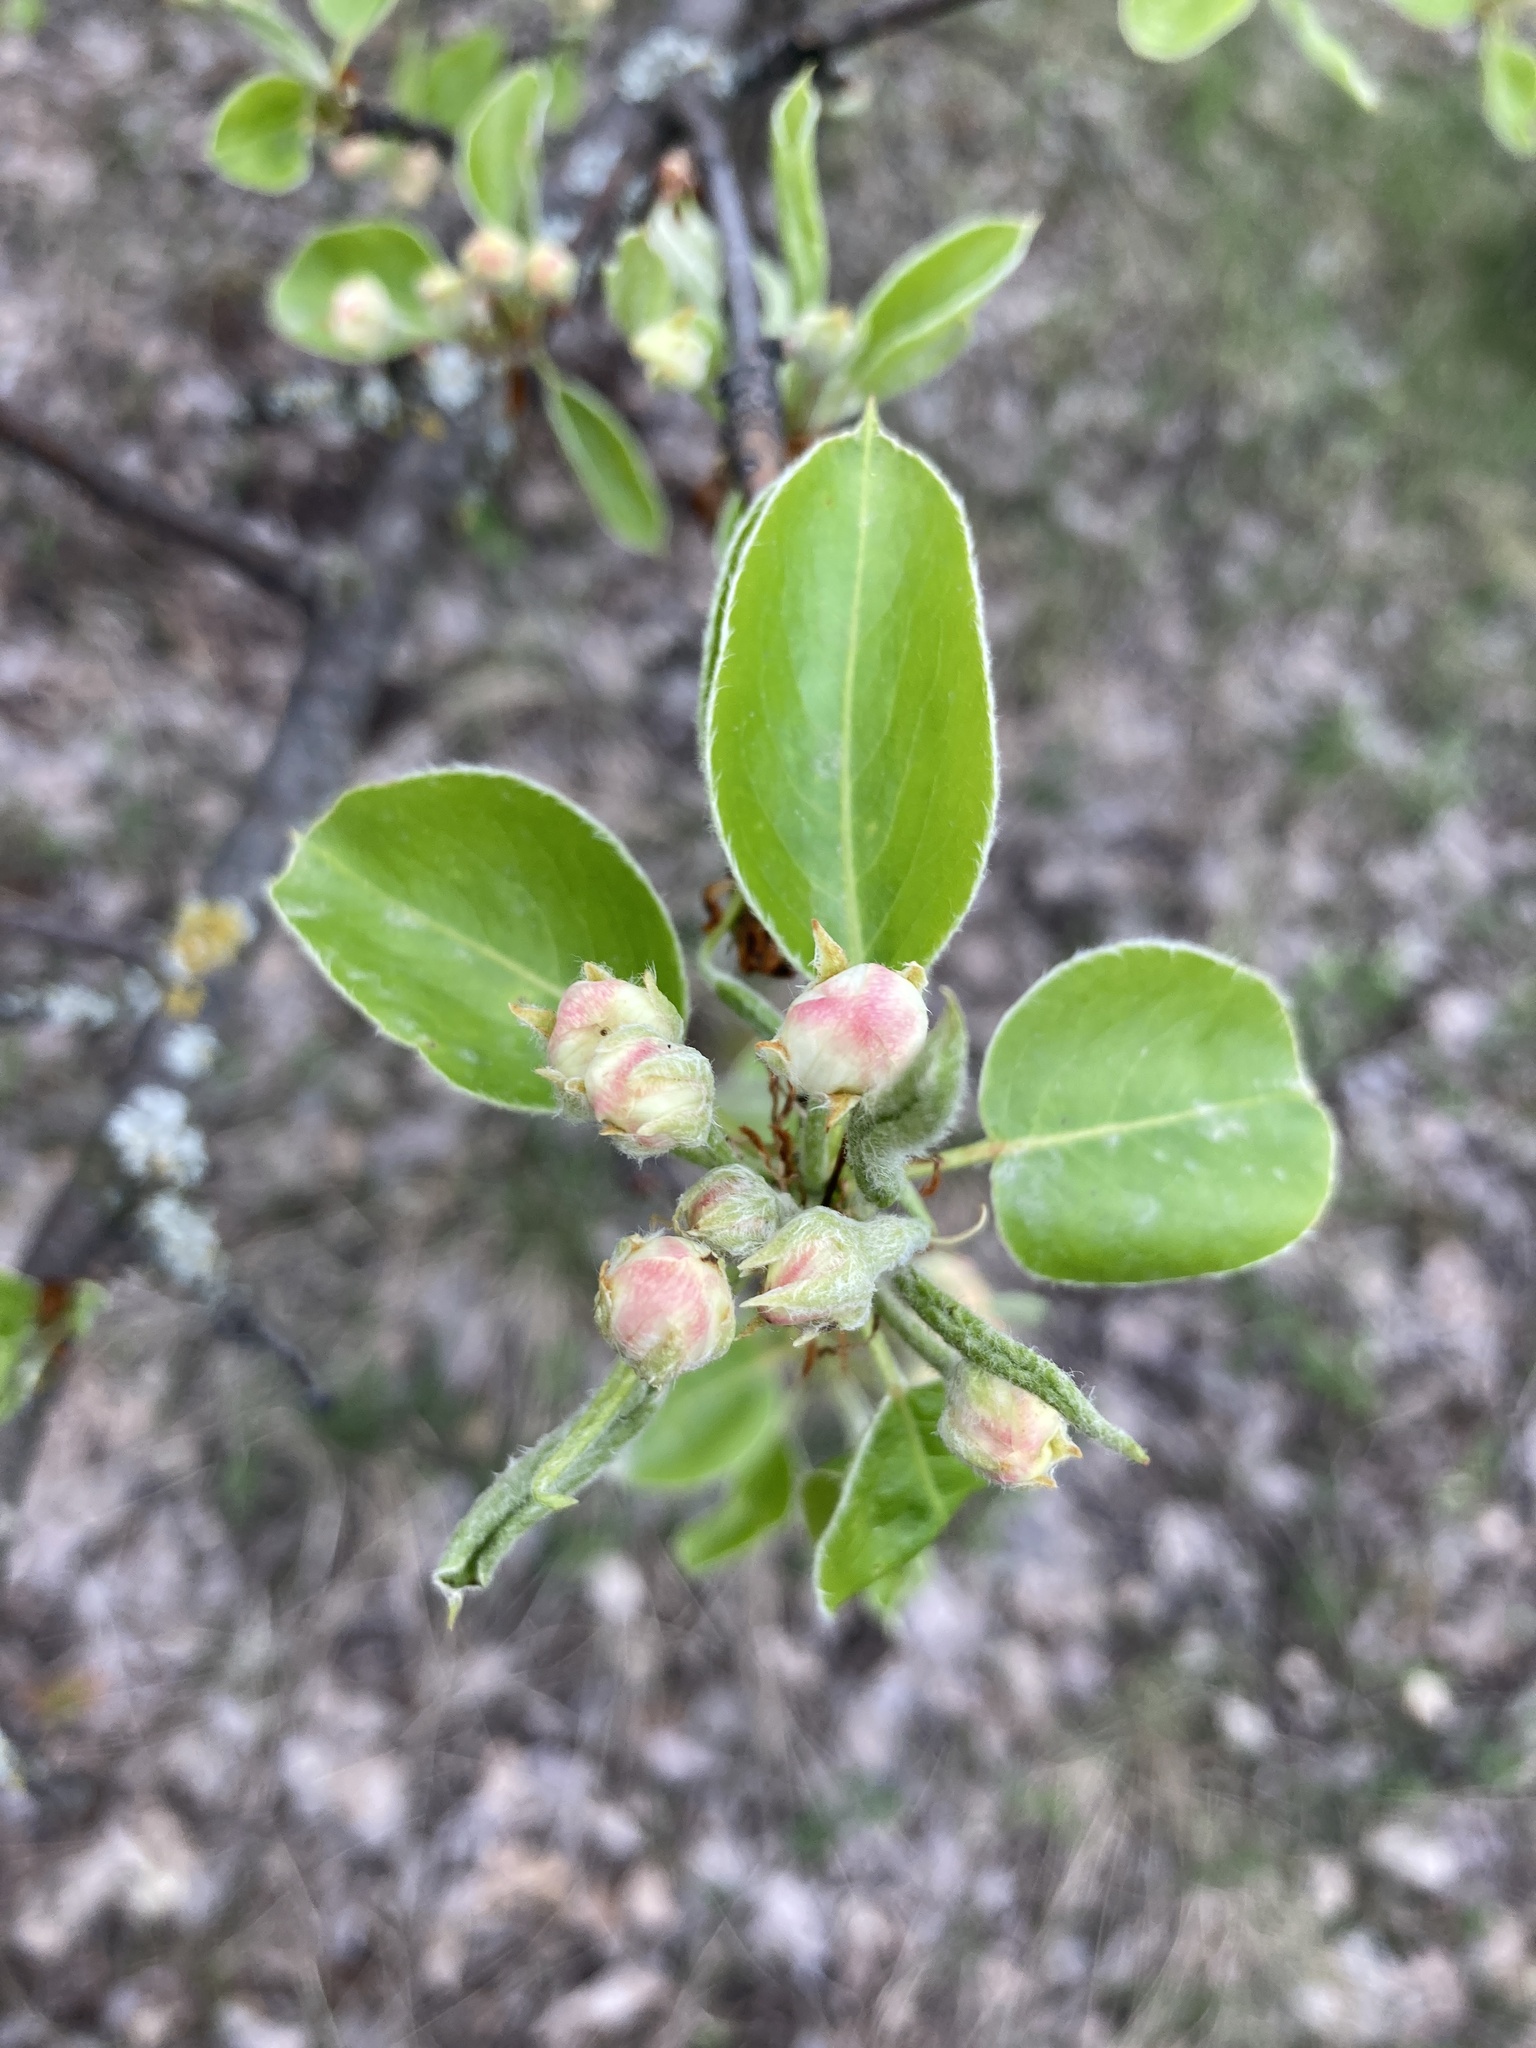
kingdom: Plantae
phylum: Tracheophyta
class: Magnoliopsida
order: Rosales
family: Rosaceae
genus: Pyrus
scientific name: Pyrus communis
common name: Pear
